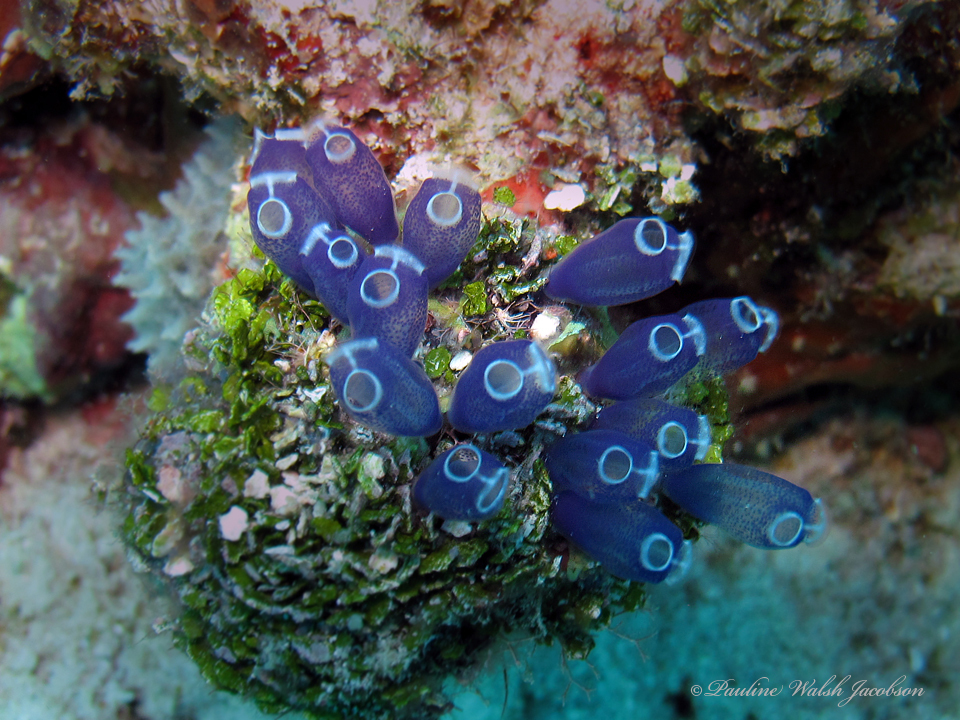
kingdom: Animalia
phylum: Chordata
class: Ascidiacea
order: Aplousobranchia
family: Clavelinidae
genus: Clavelina
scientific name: Clavelina puertosecensis
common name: Blue bell tunicate
